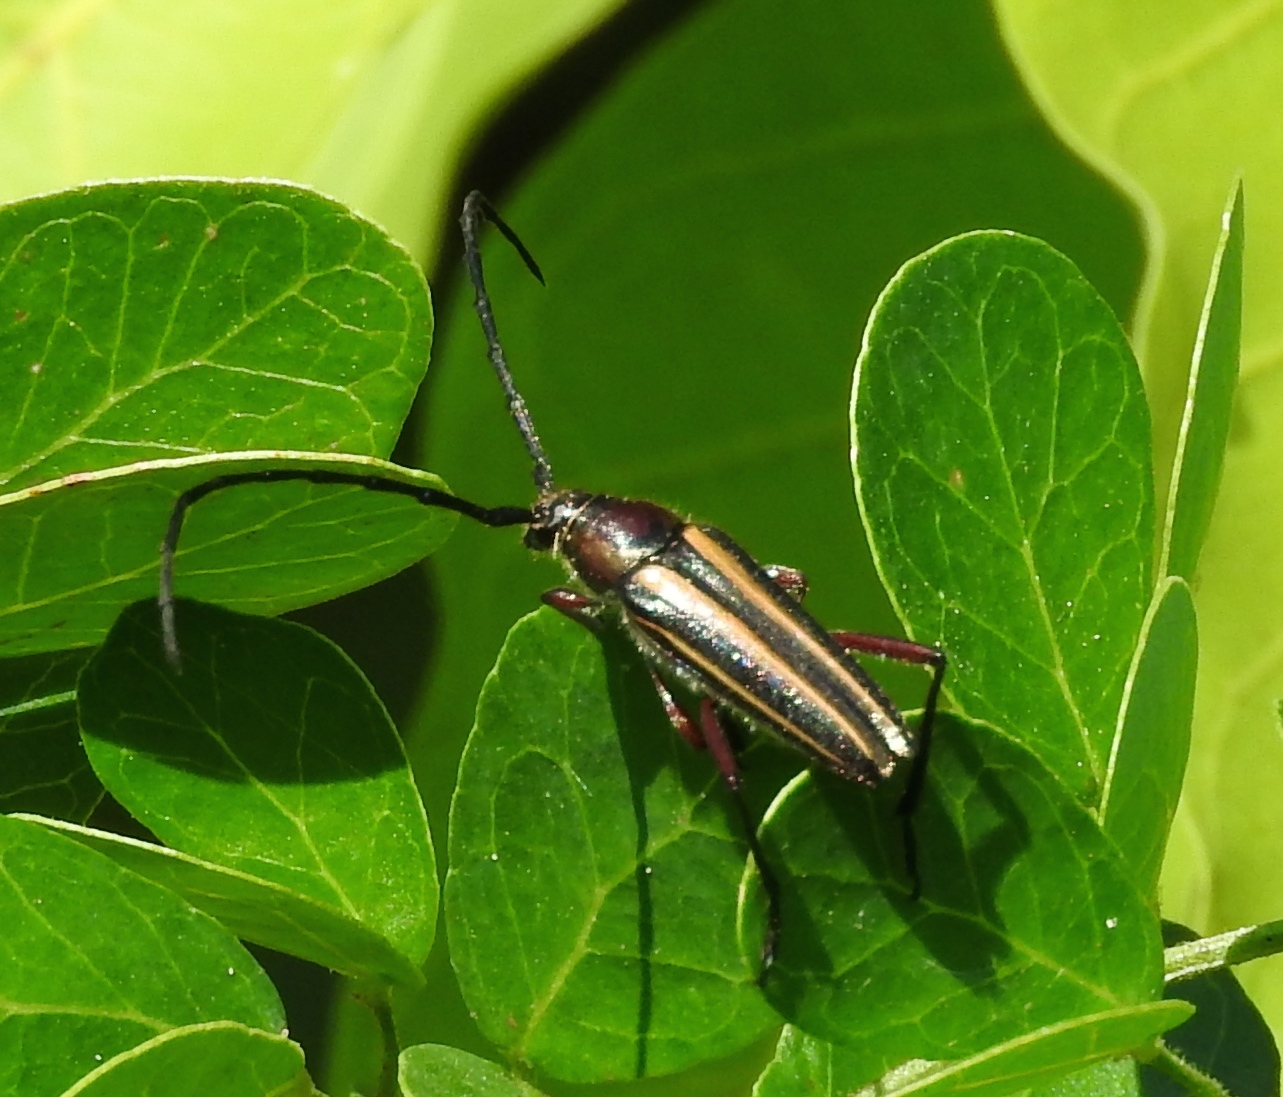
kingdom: Animalia
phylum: Arthropoda
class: Insecta
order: Coleoptera
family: Cerambycidae
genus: Sphaenothecus
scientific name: Sphaenothecus bilineatus
